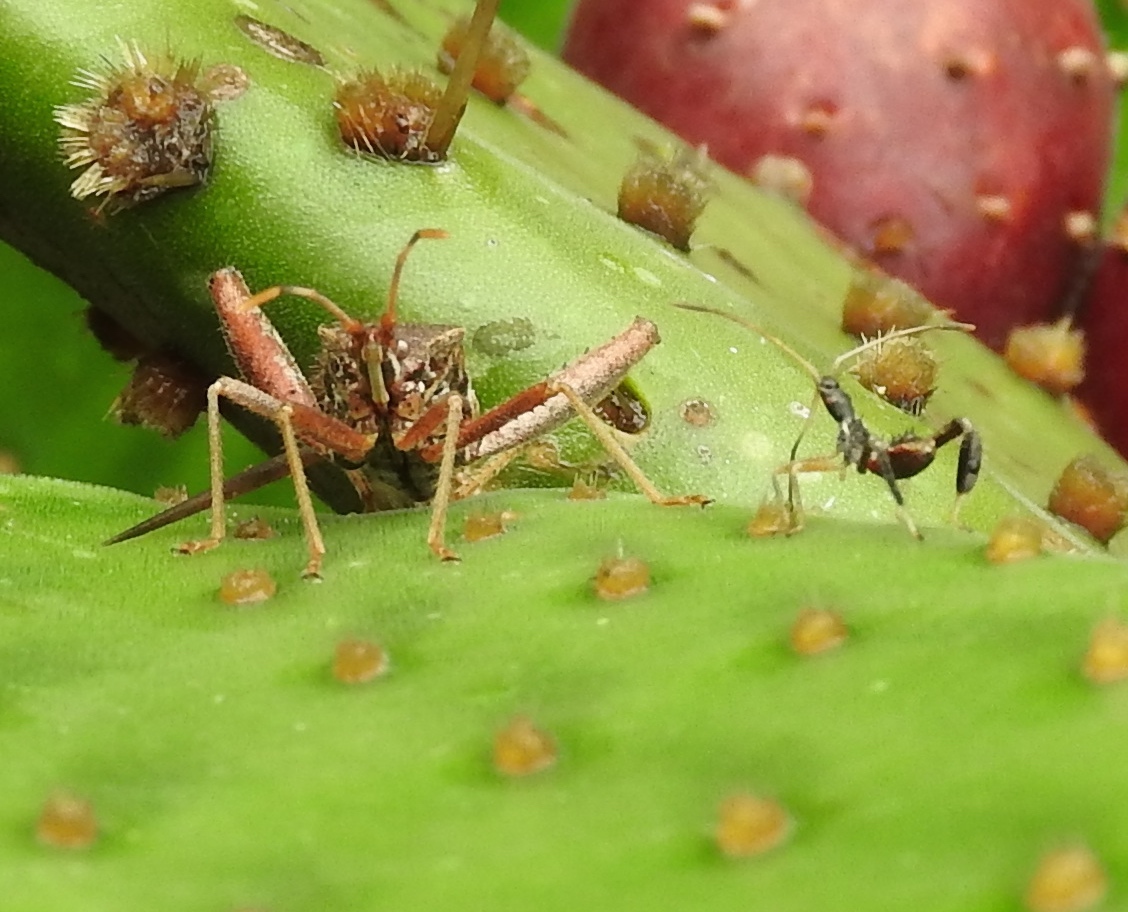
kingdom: Animalia
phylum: Arthropoda
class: Insecta
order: Hemiptera
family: Coreidae
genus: Narnia
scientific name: Narnia inornata
